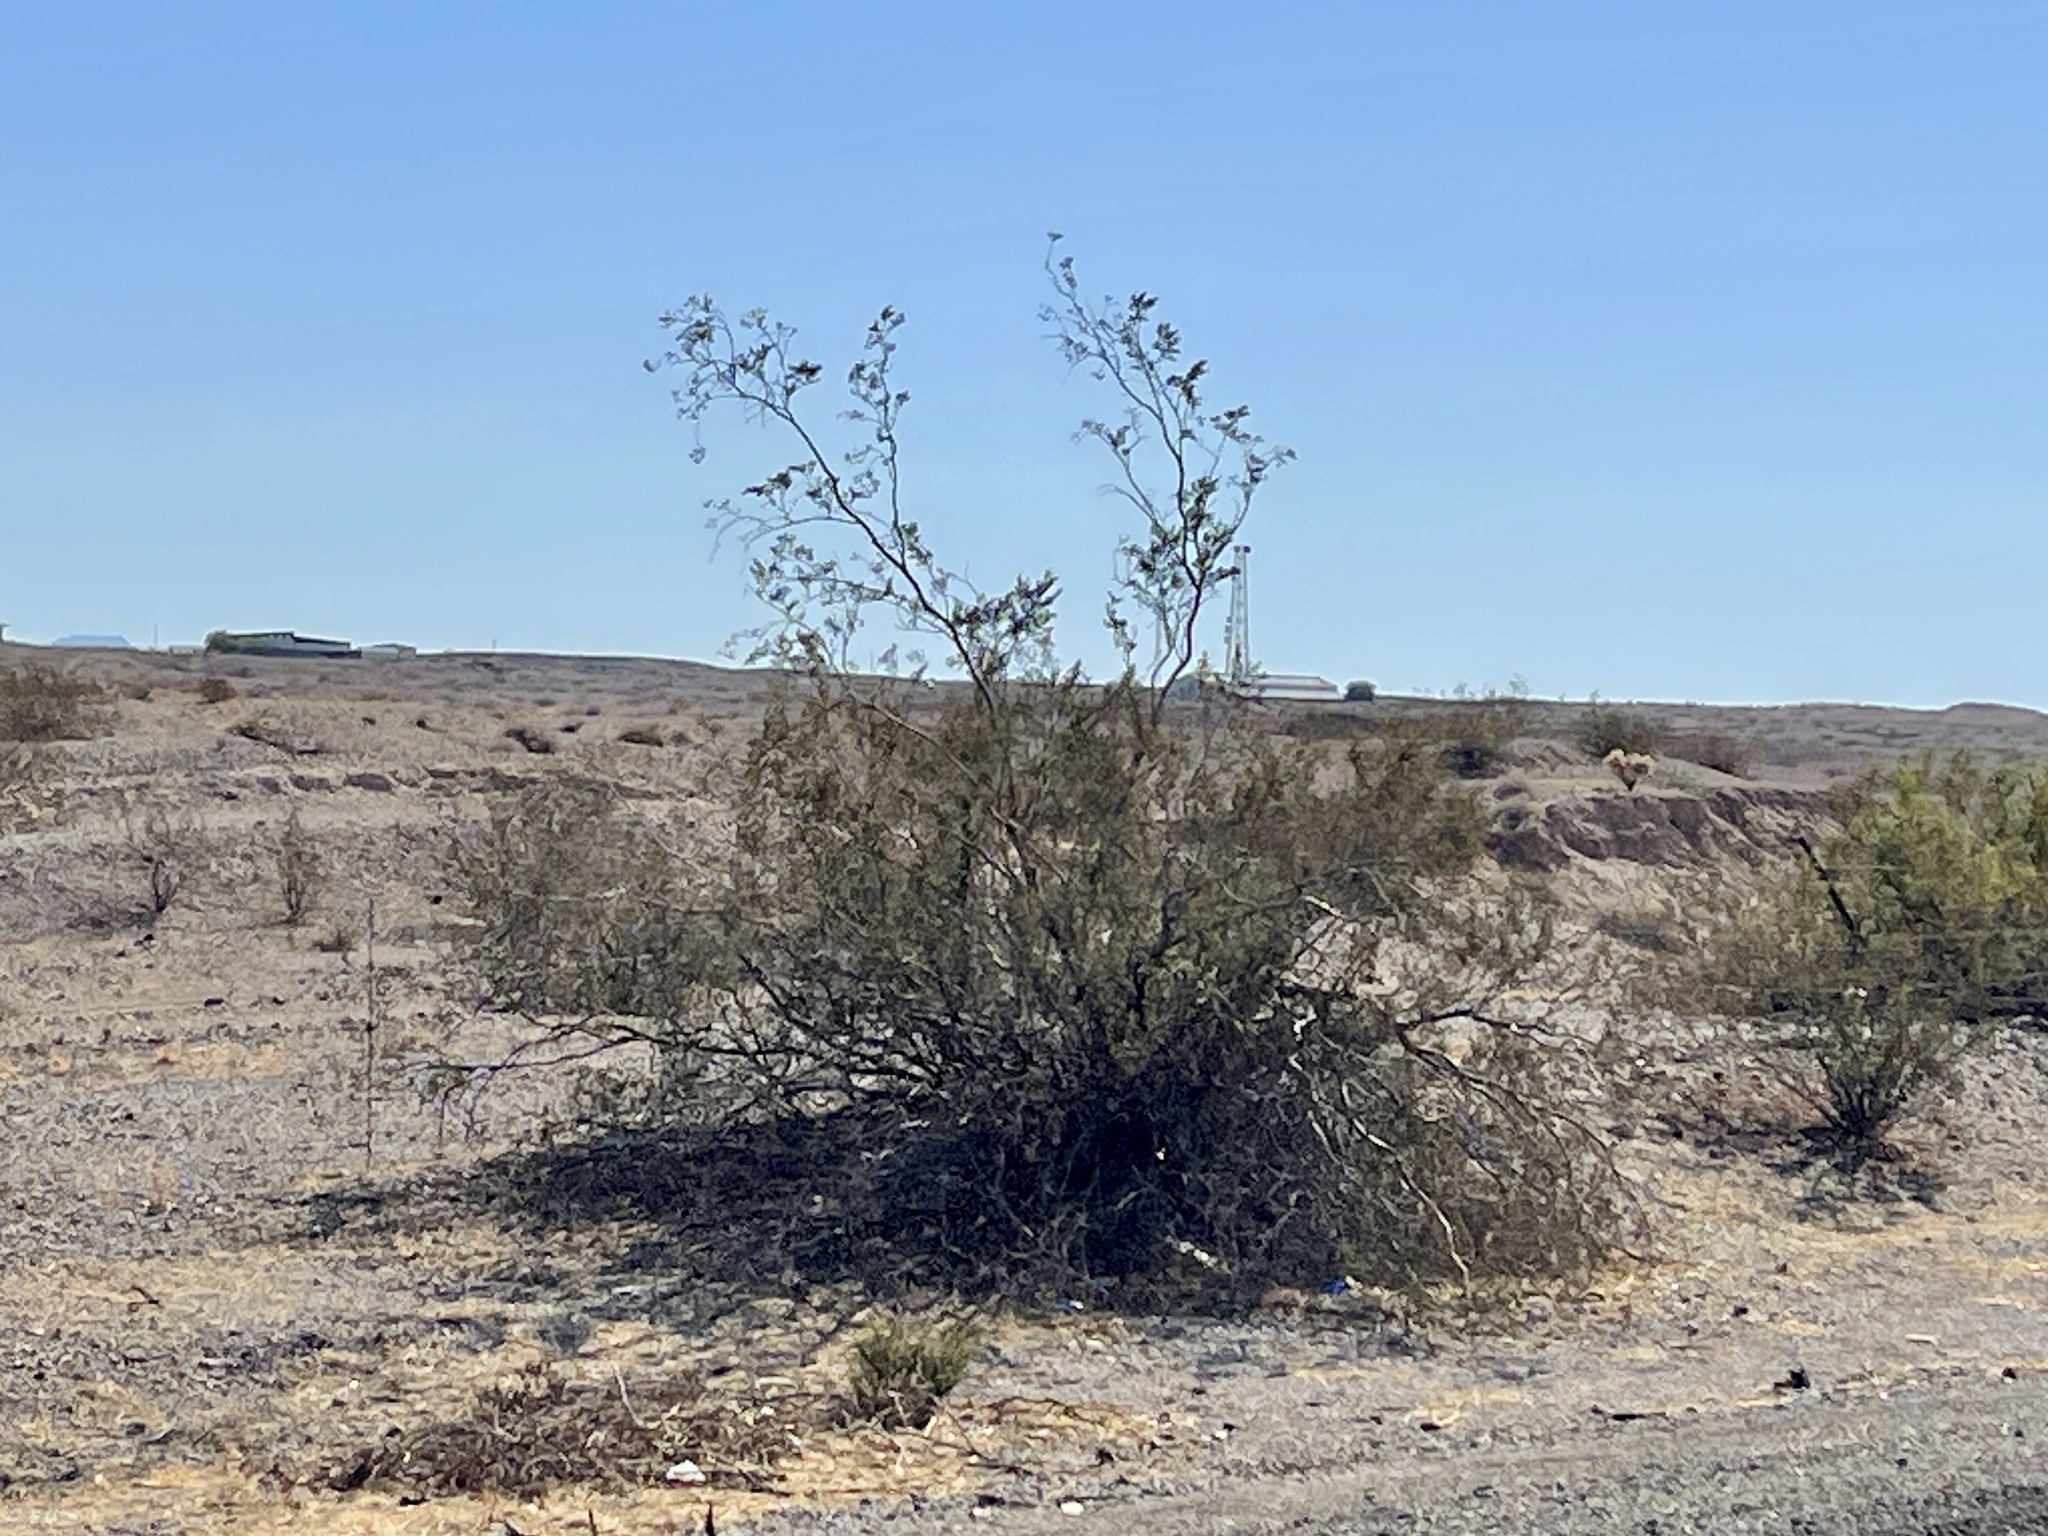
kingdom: Plantae
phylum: Tracheophyta
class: Magnoliopsida
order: Zygophyllales
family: Zygophyllaceae
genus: Larrea
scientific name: Larrea tridentata
